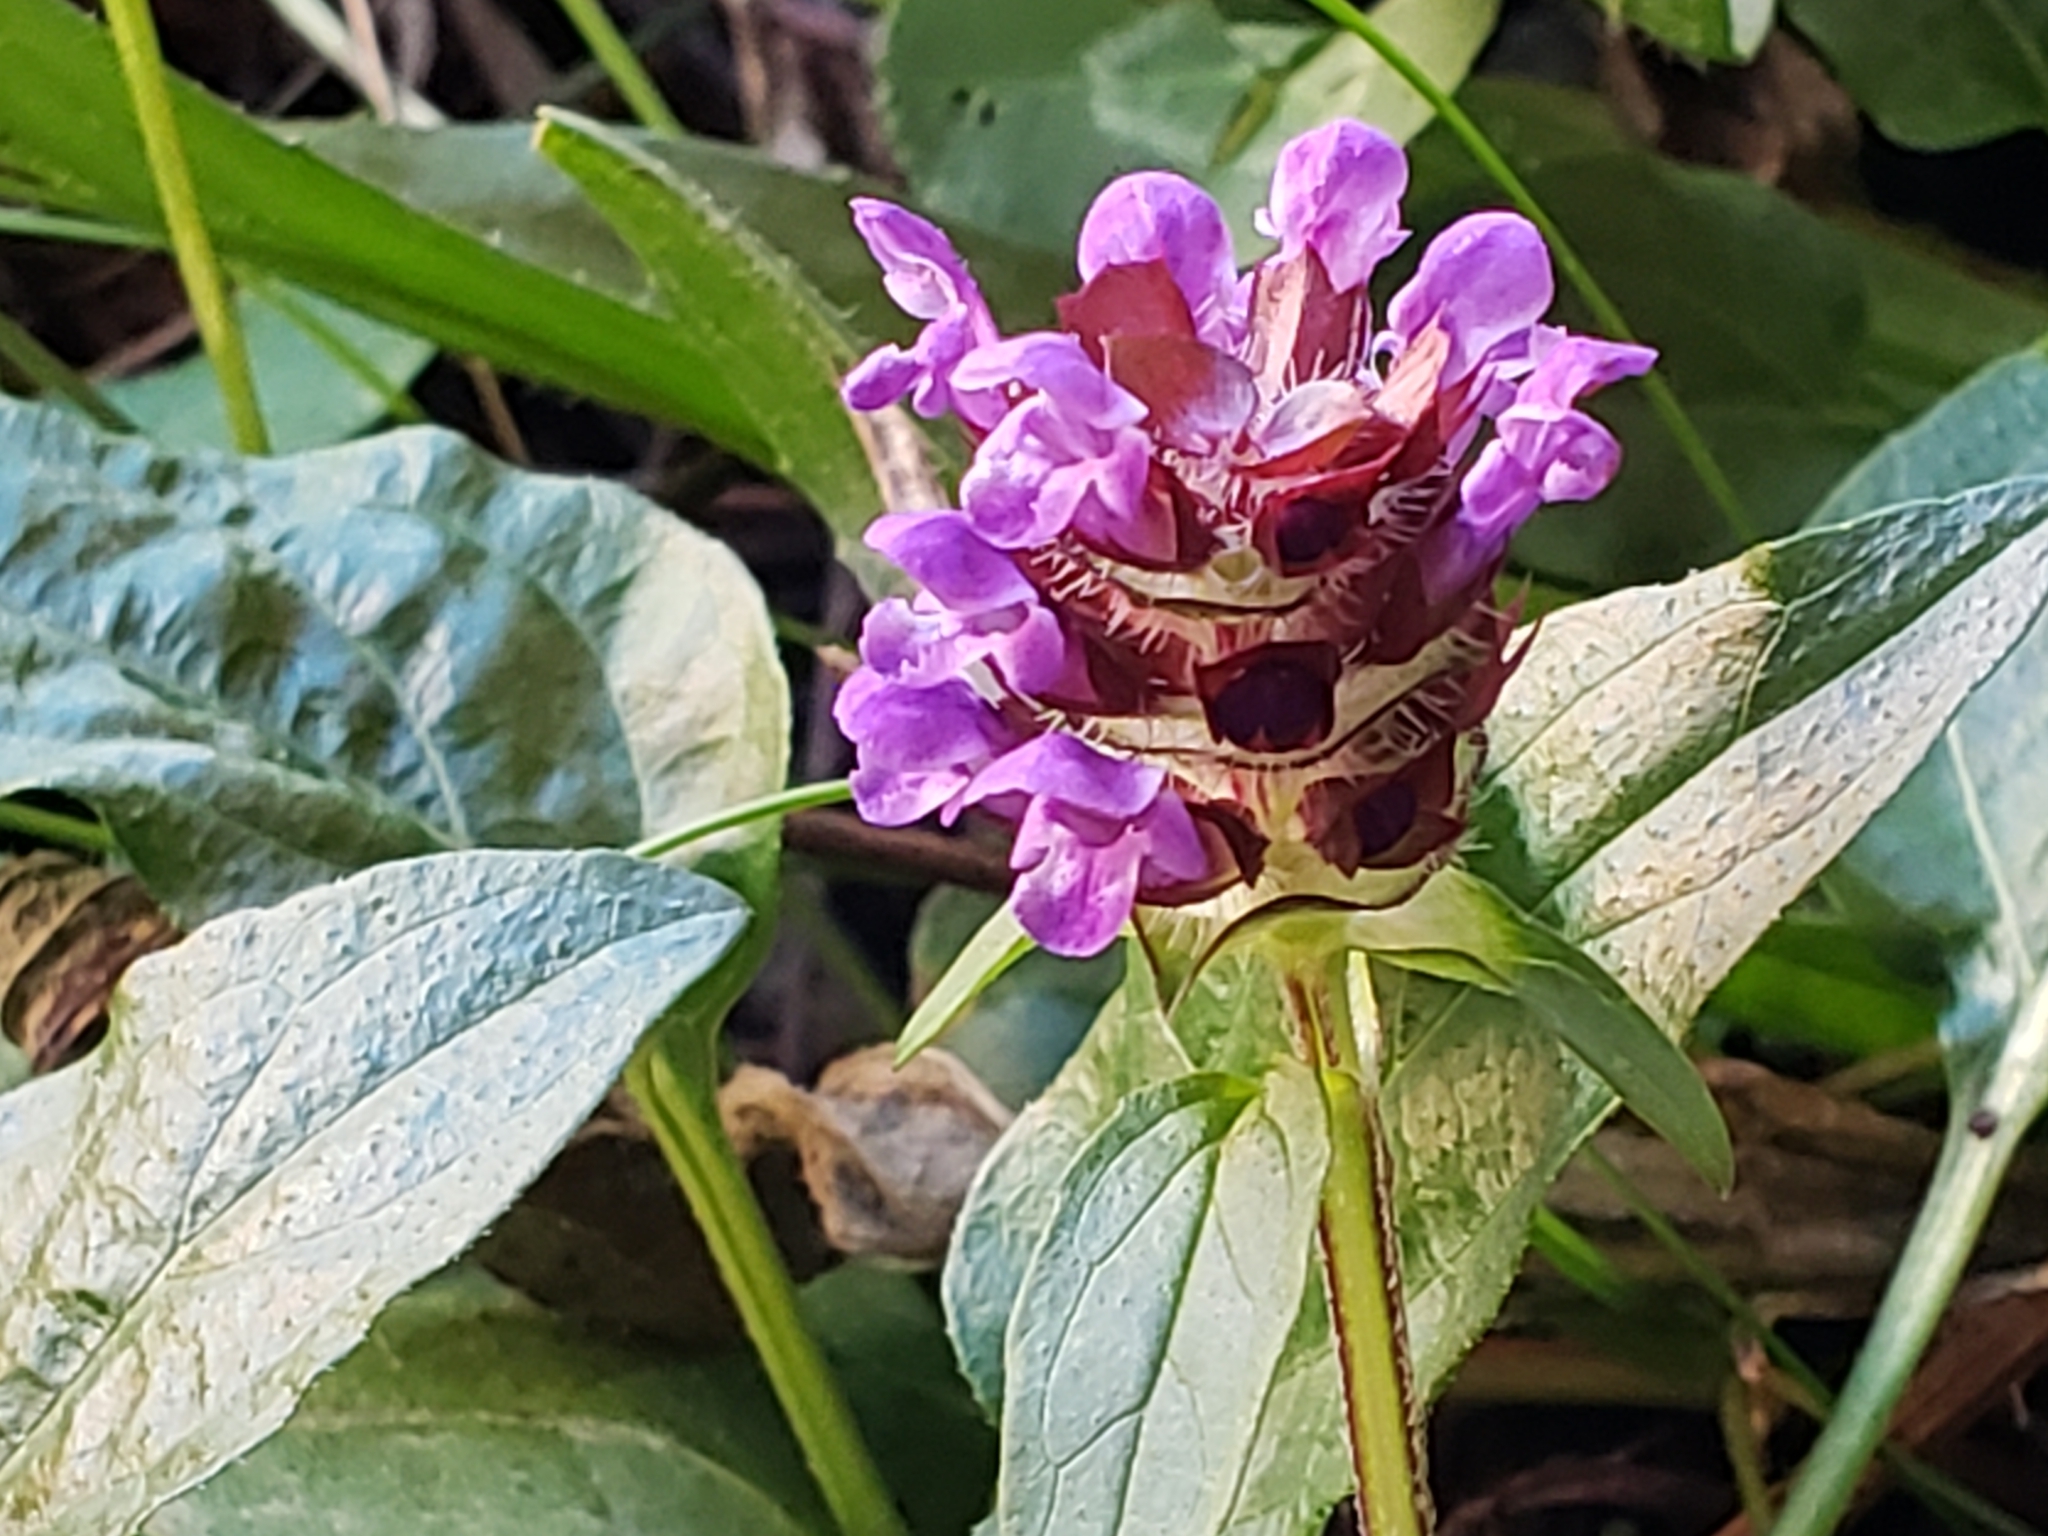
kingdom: Plantae
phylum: Tracheophyta
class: Magnoliopsida
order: Lamiales
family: Lamiaceae
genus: Prunella
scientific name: Prunella vulgaris
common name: Heal-all
